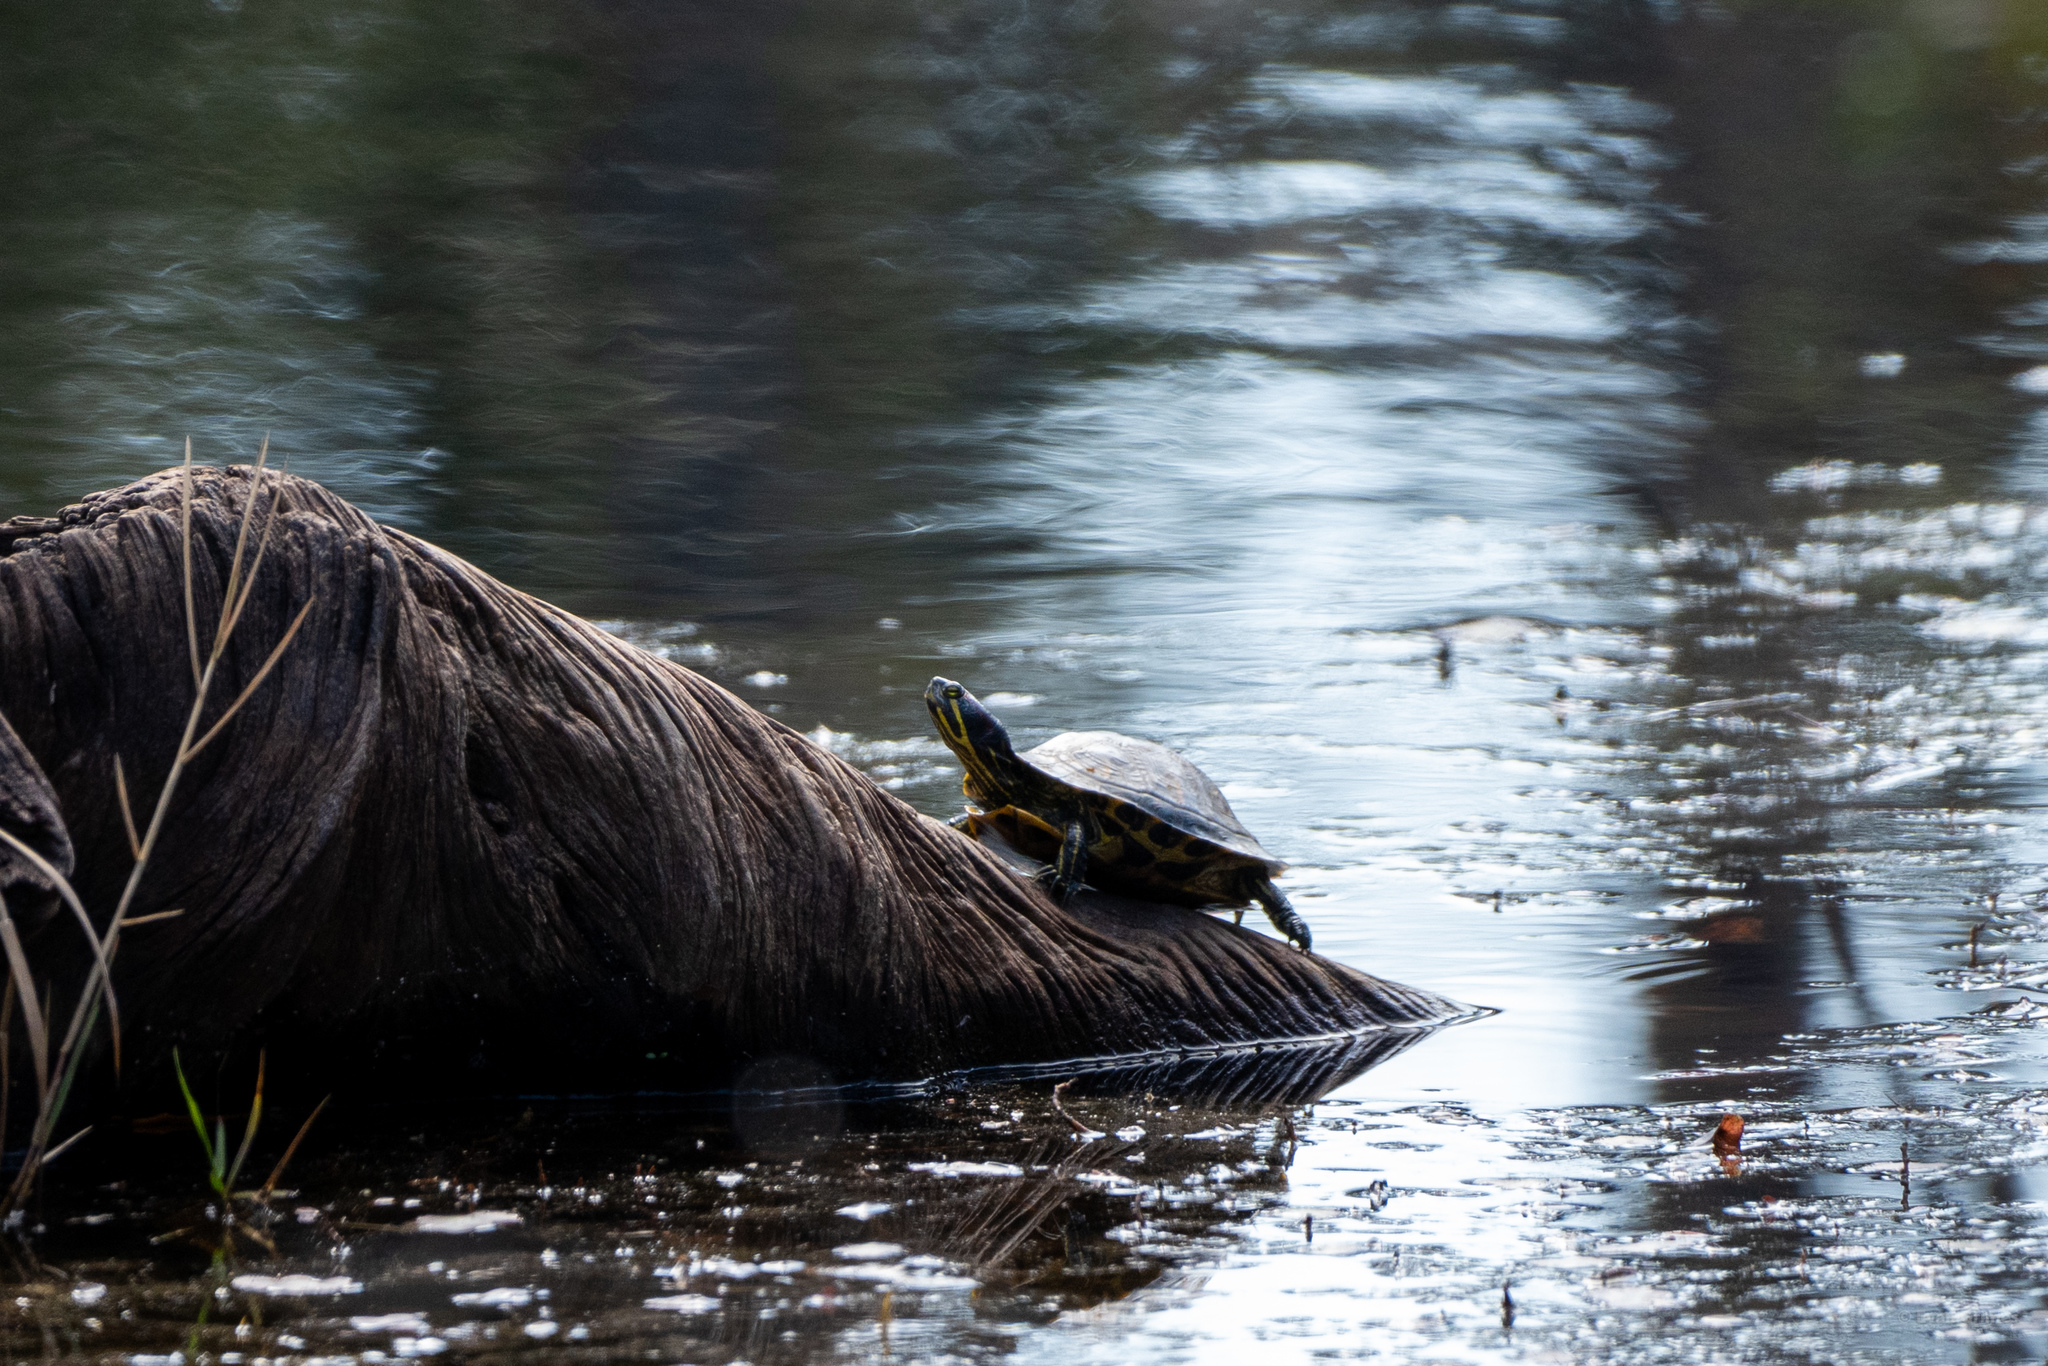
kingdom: Animalia
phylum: Chordata
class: Testudines
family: Emydidae
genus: Trachemys
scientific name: Trachemys scripta
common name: Slider
